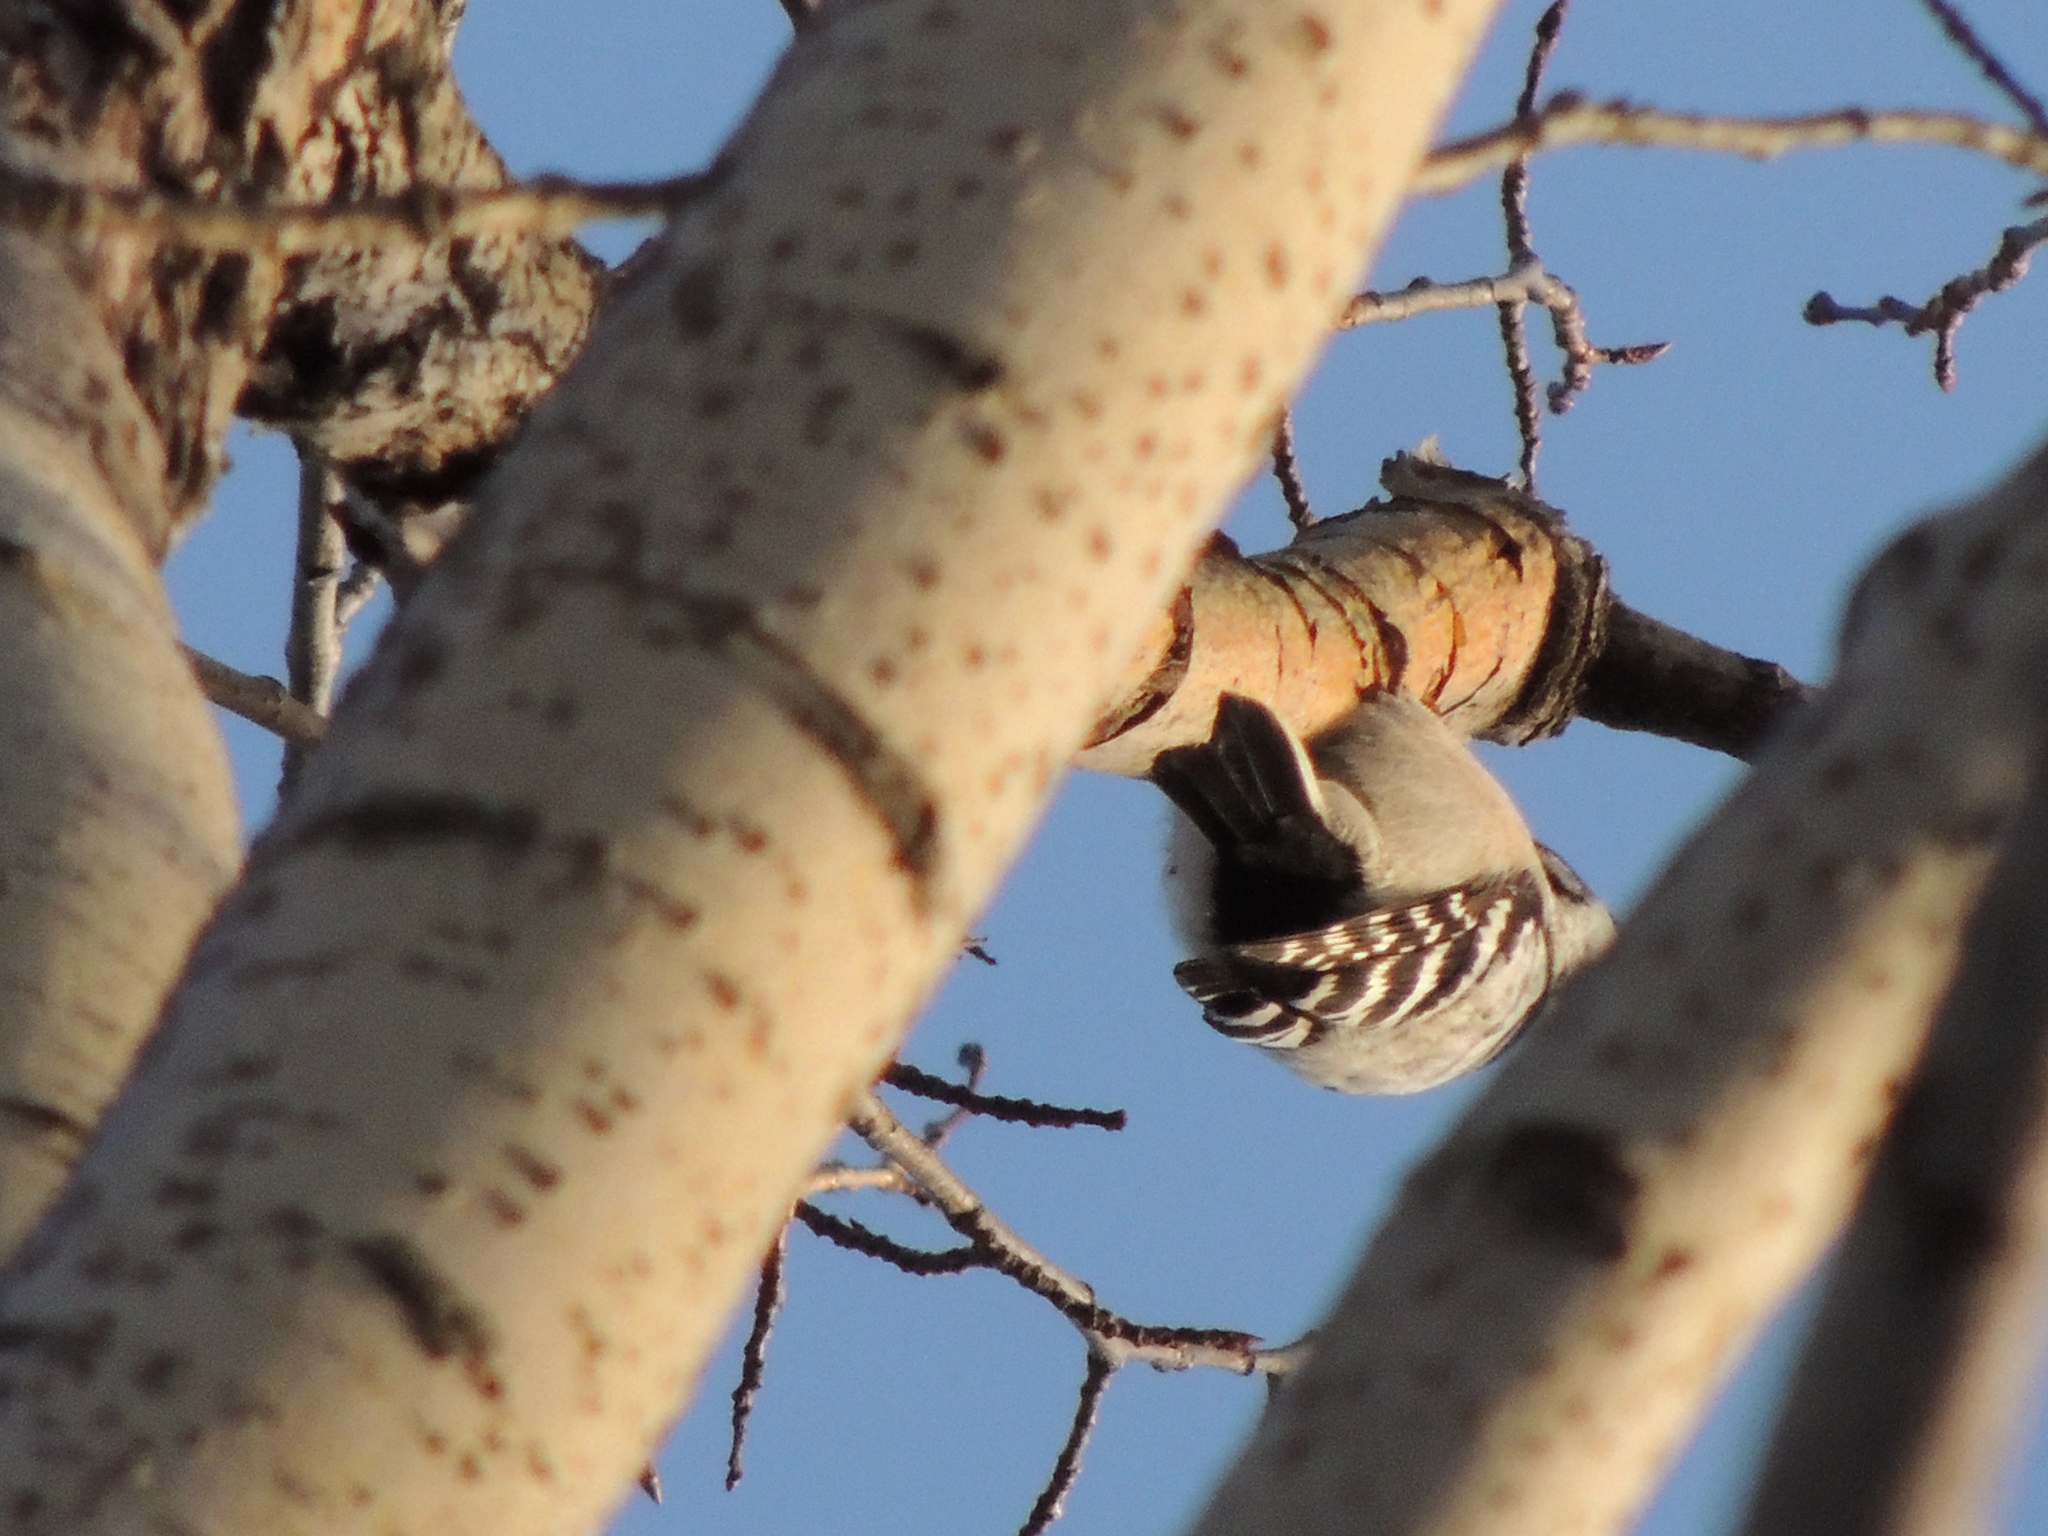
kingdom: Animalia
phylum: Chordata
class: Aves
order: Piciformes
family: Picidae
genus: Dryobates
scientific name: Dryobates minor
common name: Lesser spotted woodpecker
